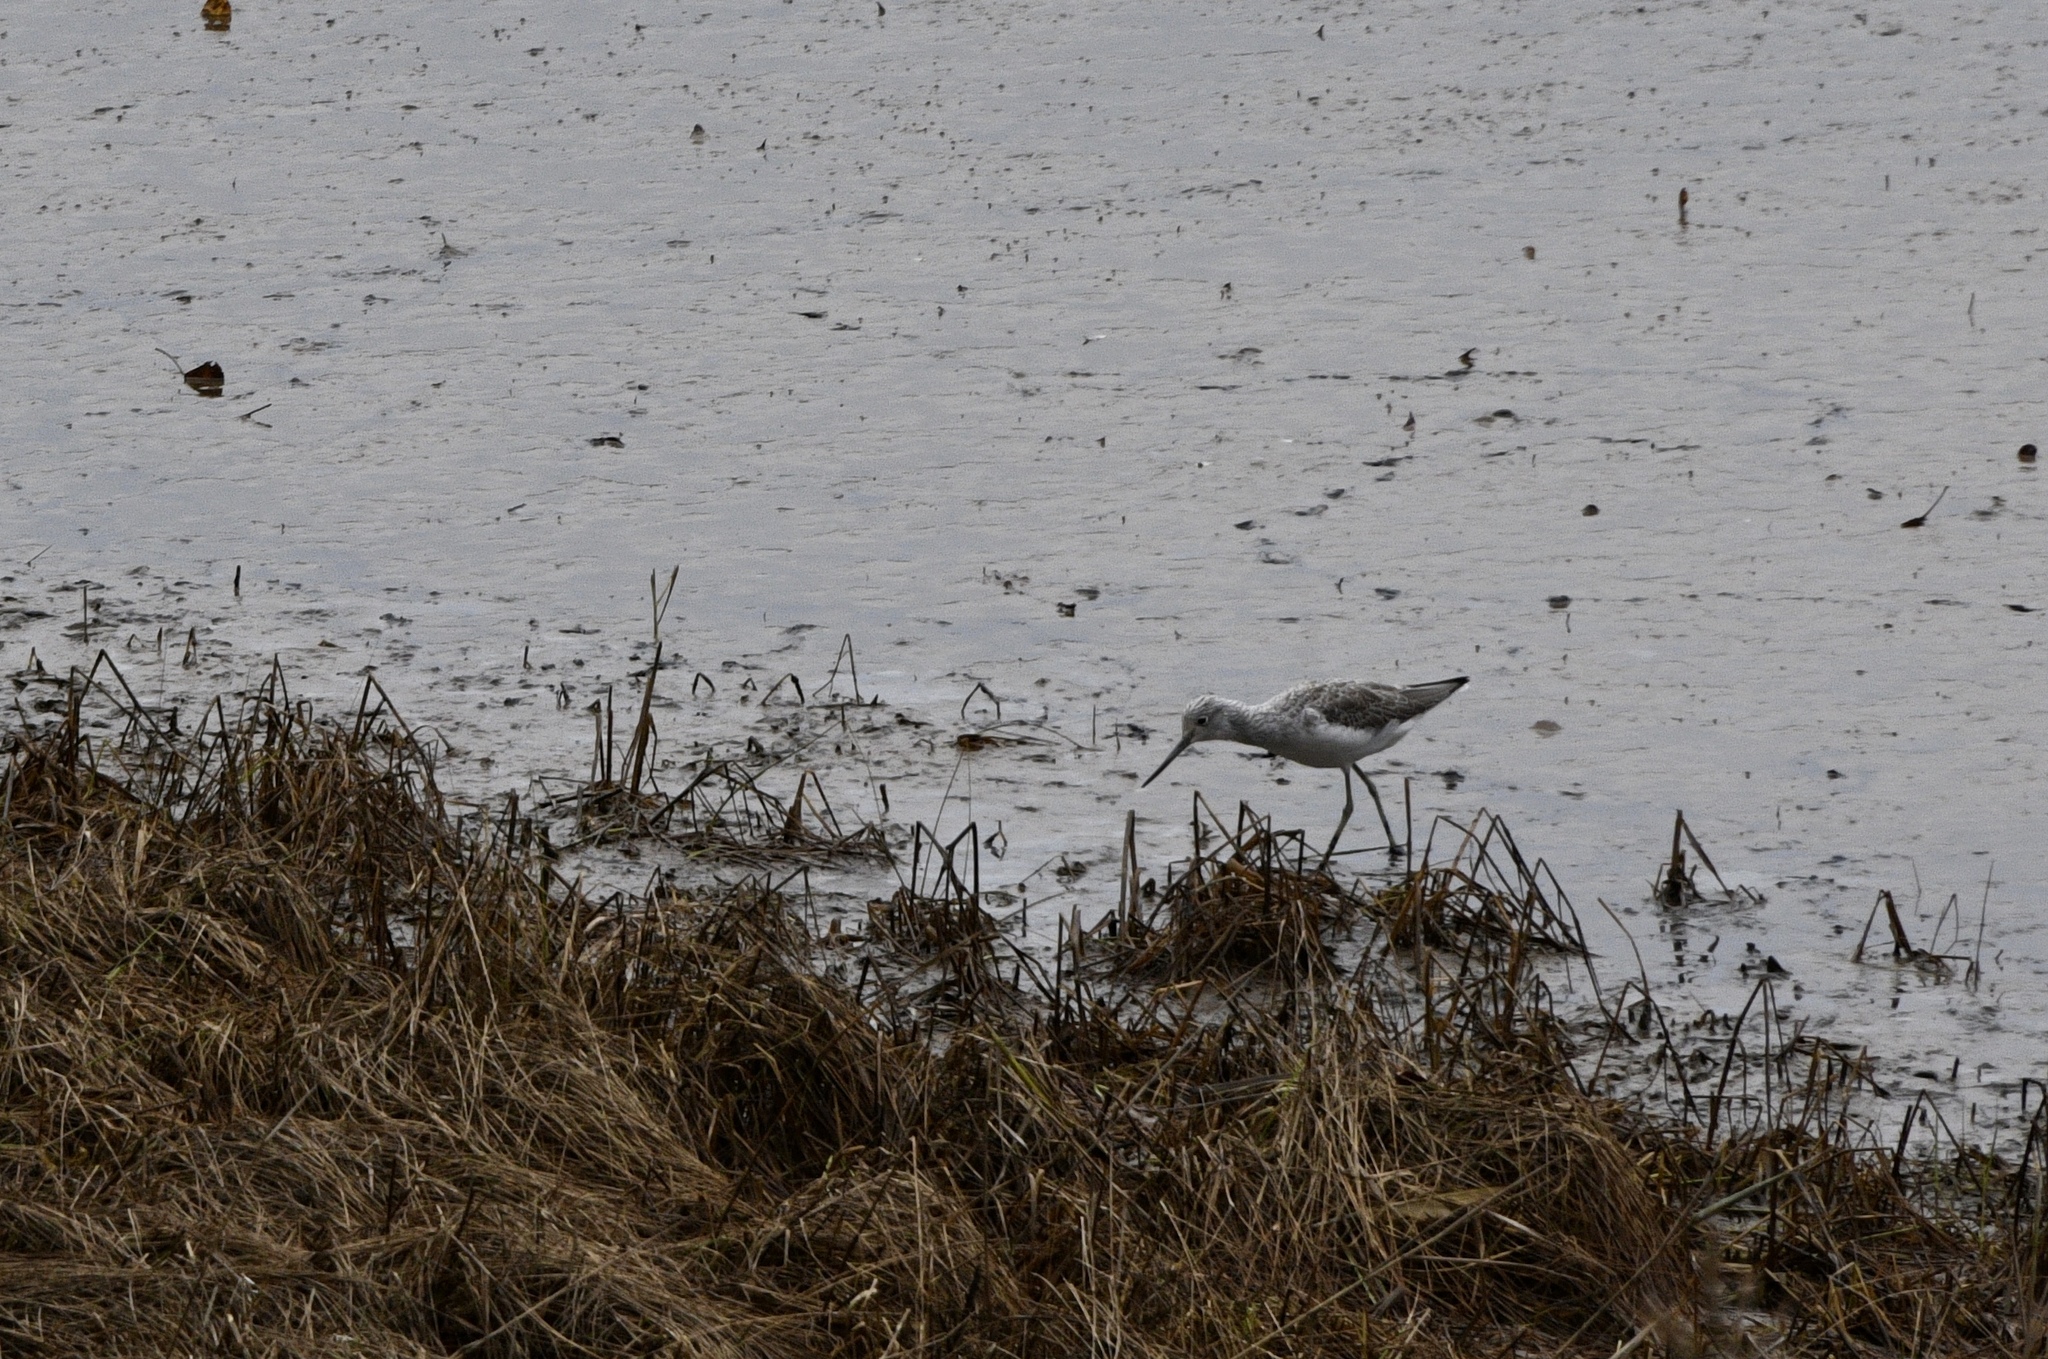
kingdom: Animalia
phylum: Chordata
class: Aves
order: Charadriiformes
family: Scolopacidae
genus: Tringa
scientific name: Tringa nebularia
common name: Common greenshank
